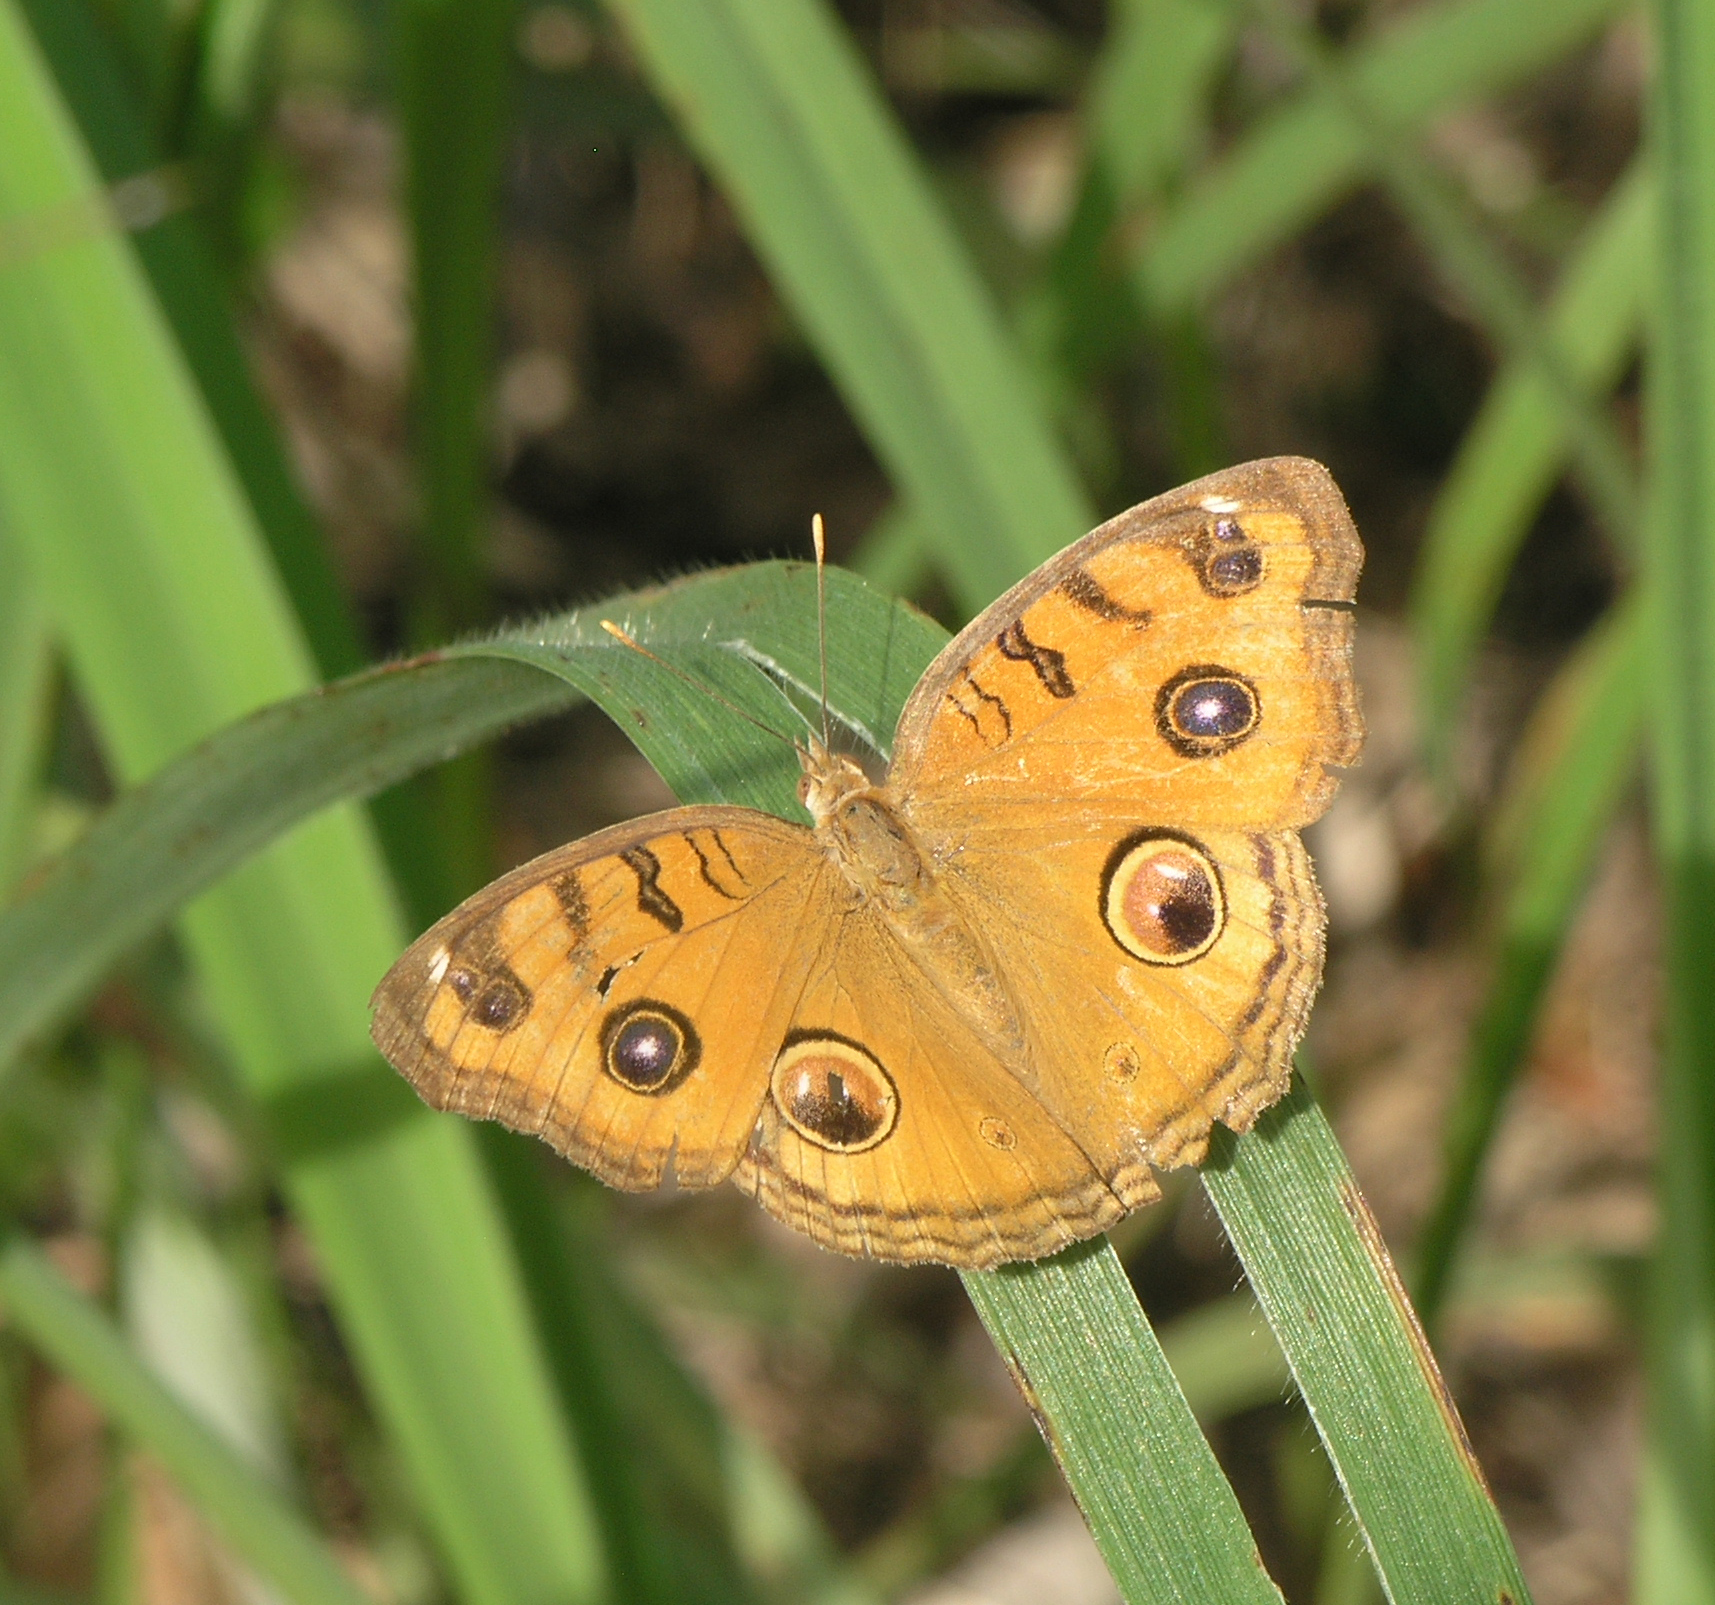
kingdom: Animalia
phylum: Arthropoda
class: Insecta
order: Lepidoptera
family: Nymphalidae
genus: Junonia
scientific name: Junonia almana
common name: Peacock pansy
